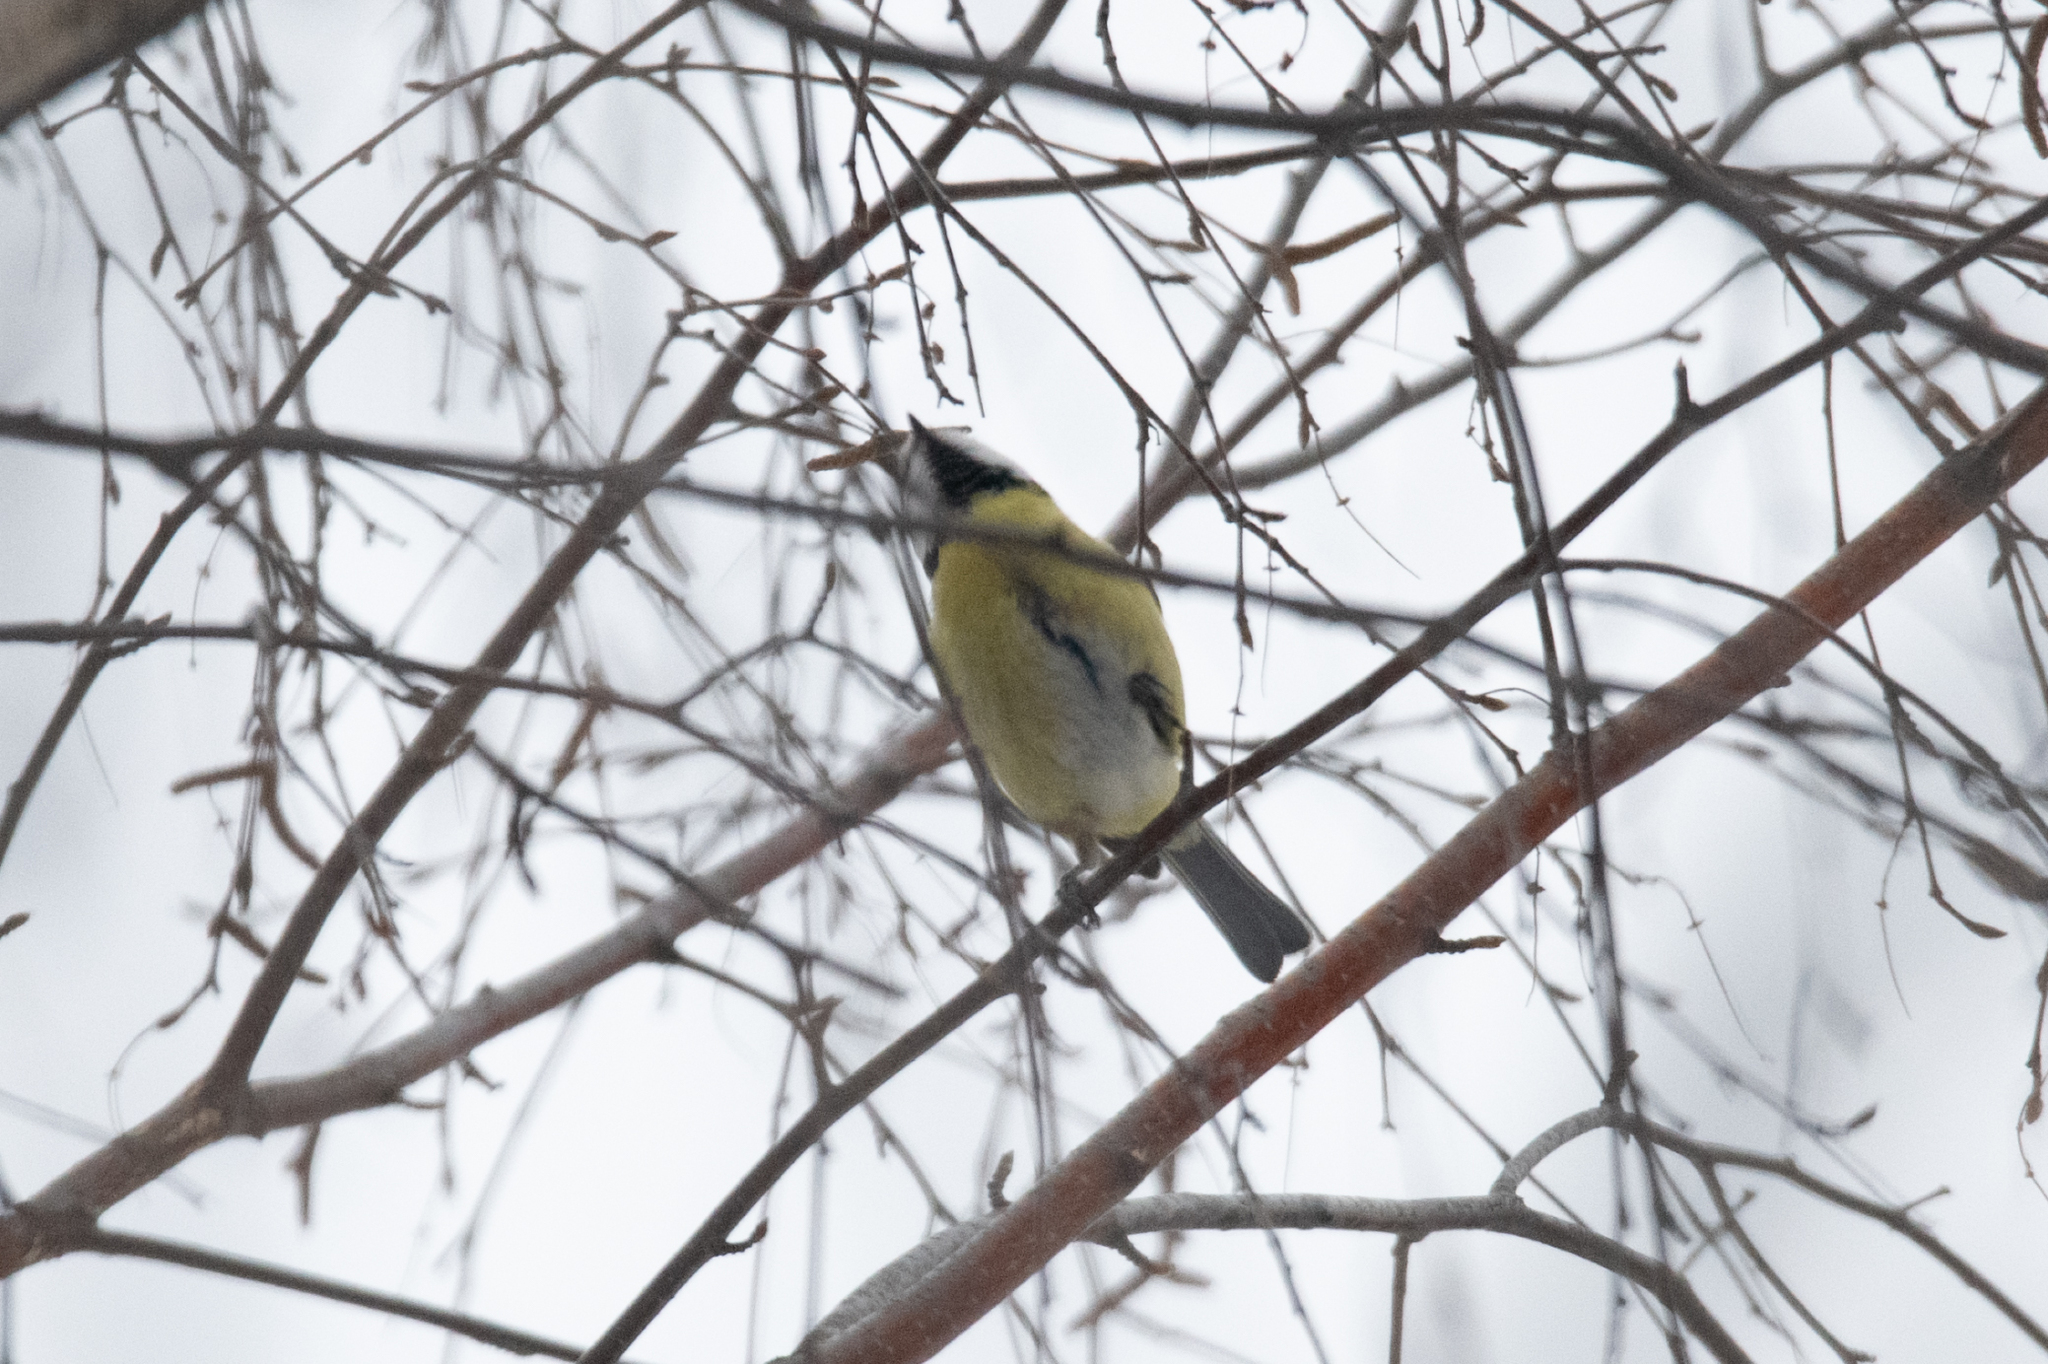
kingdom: Animalia
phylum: Chordata
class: Aves
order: Passeriformes
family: Paridae
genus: Cyanistes
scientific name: Cyanistes caeruleus
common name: Eurasian blue tit
